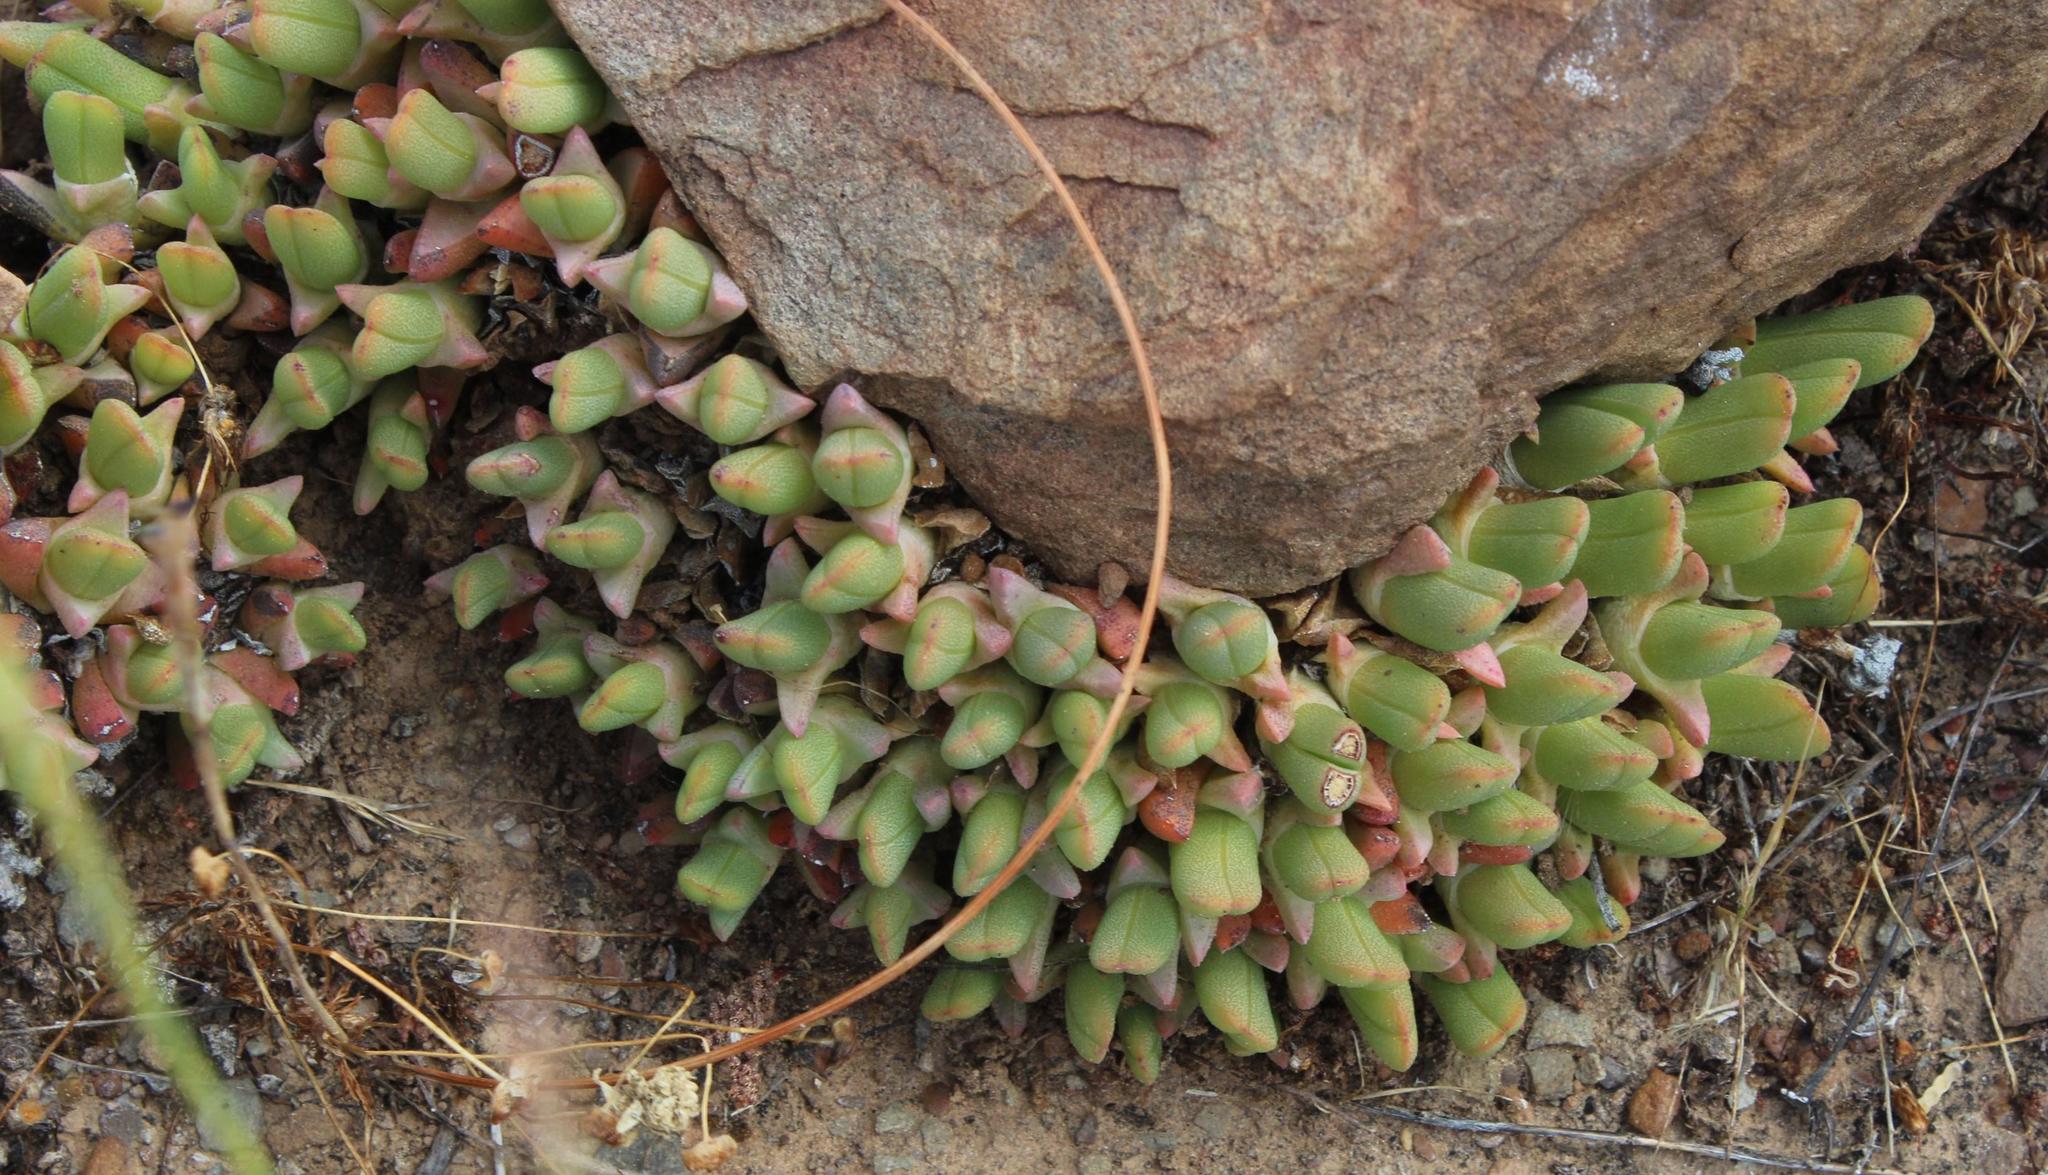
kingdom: Plantae
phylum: Tracheophyta
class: Magnoliopsida
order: Caryophyllales
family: Aizoaceae
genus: Cheiridopsis
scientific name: Cheiridopsis namaquensis
